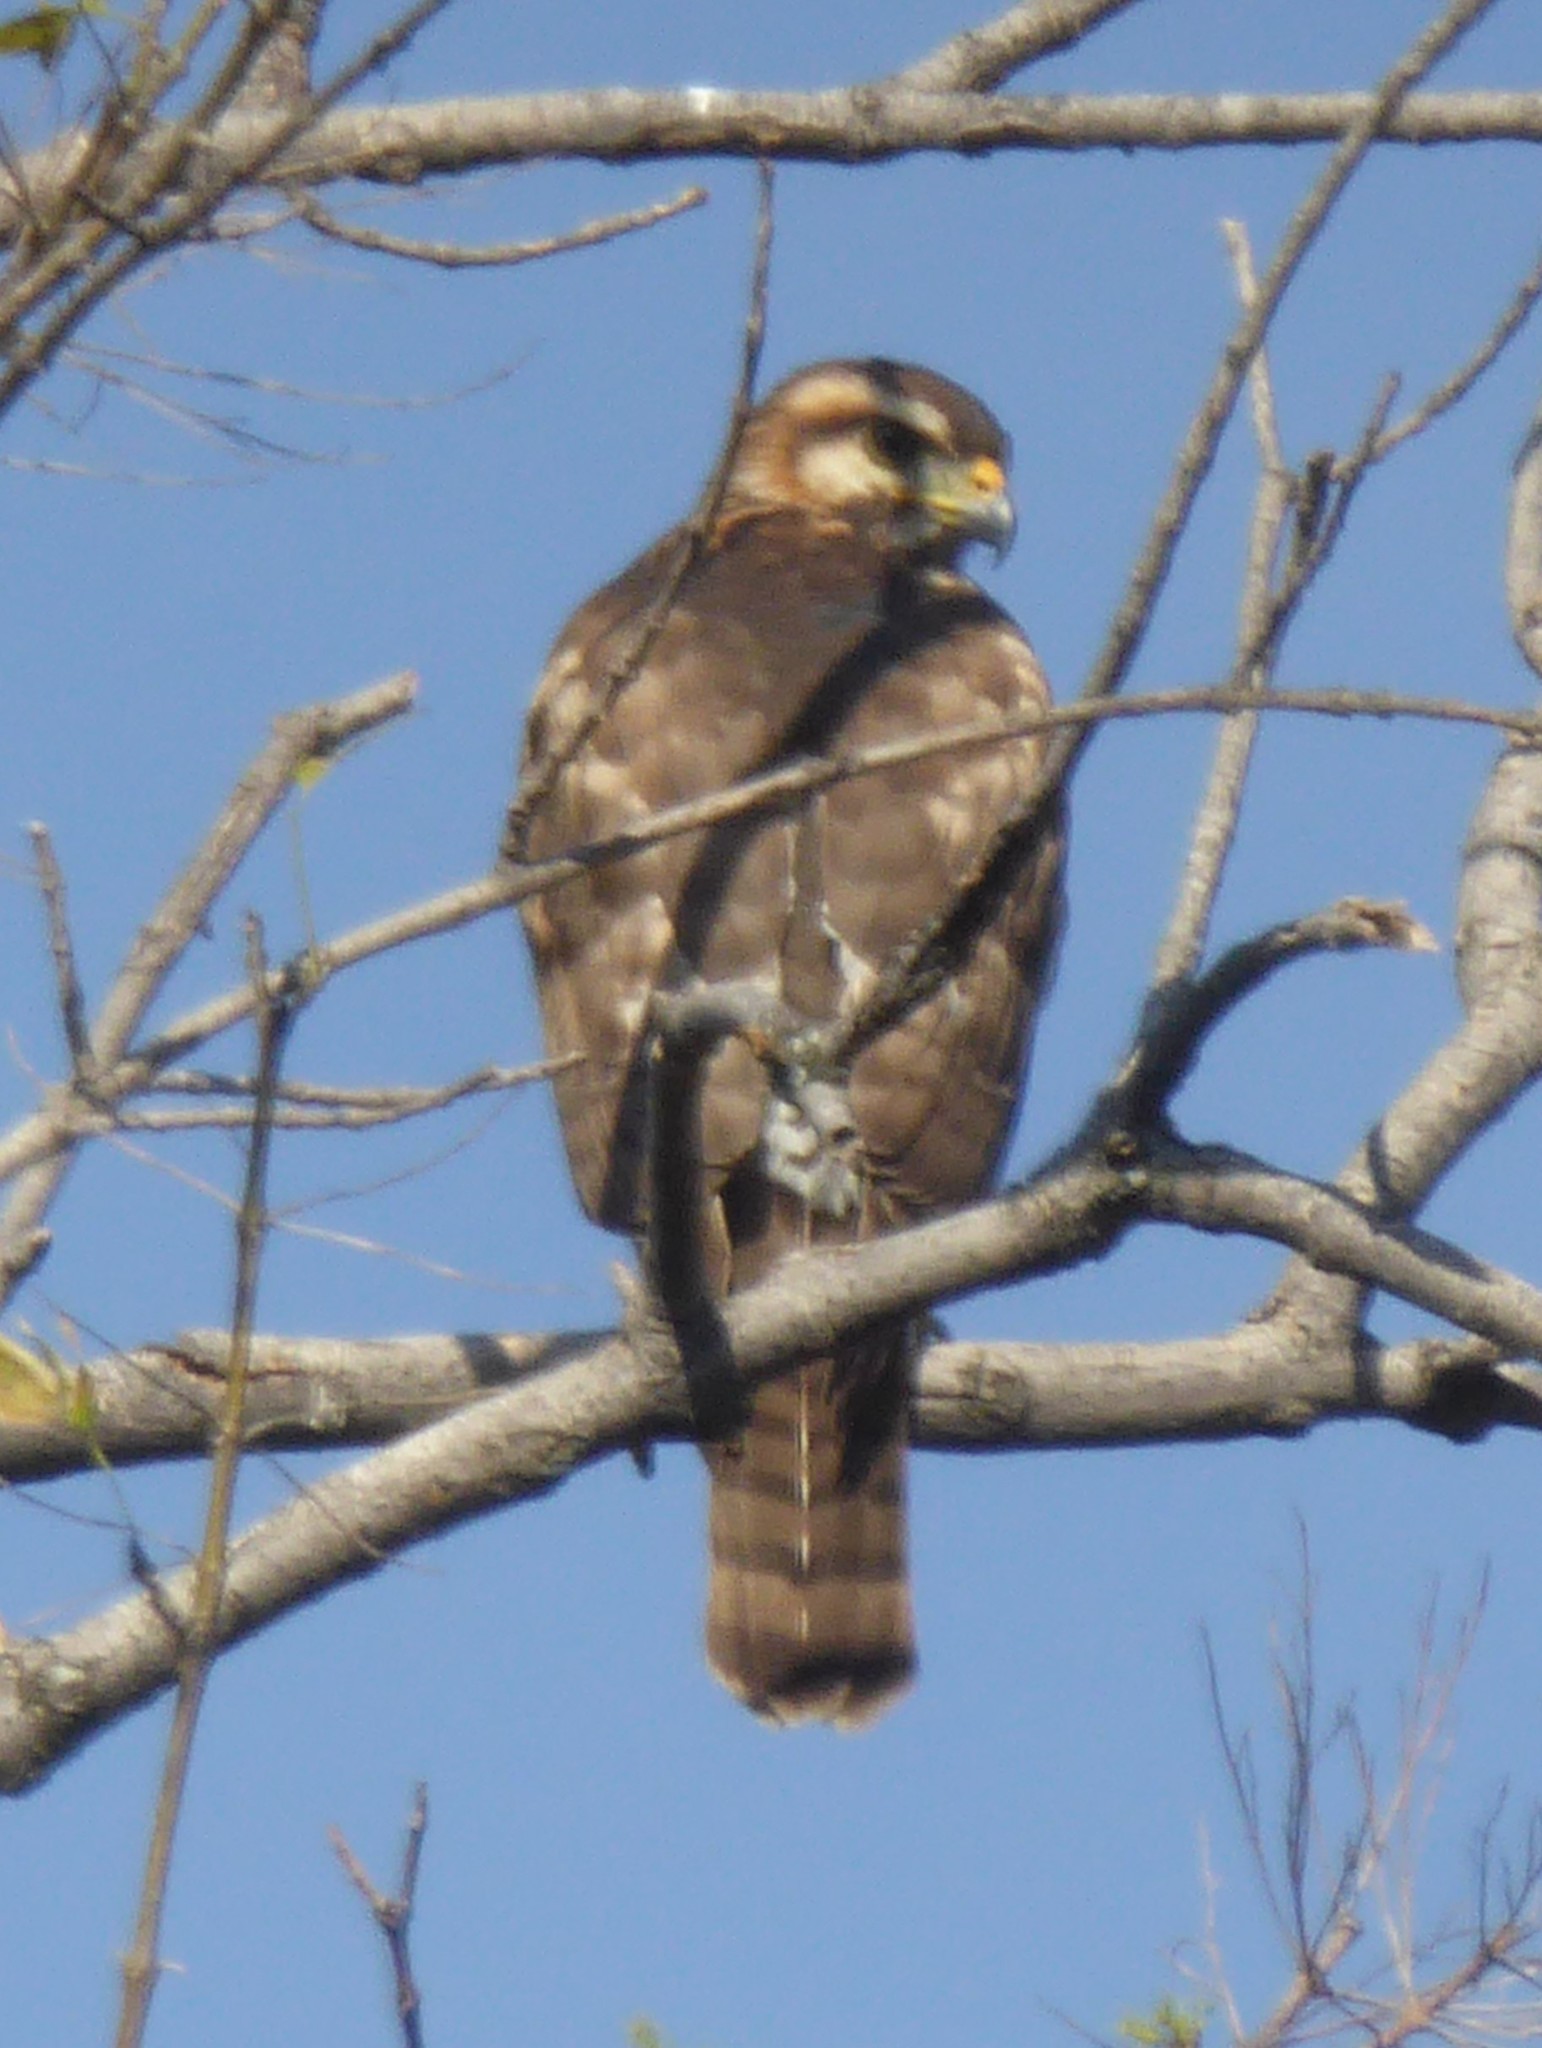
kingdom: Animalia
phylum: Chordata
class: Aves
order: Accipitriformes
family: Accipitridae
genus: Buteo
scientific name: Buteo nitidus
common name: Grey-lined hawk
